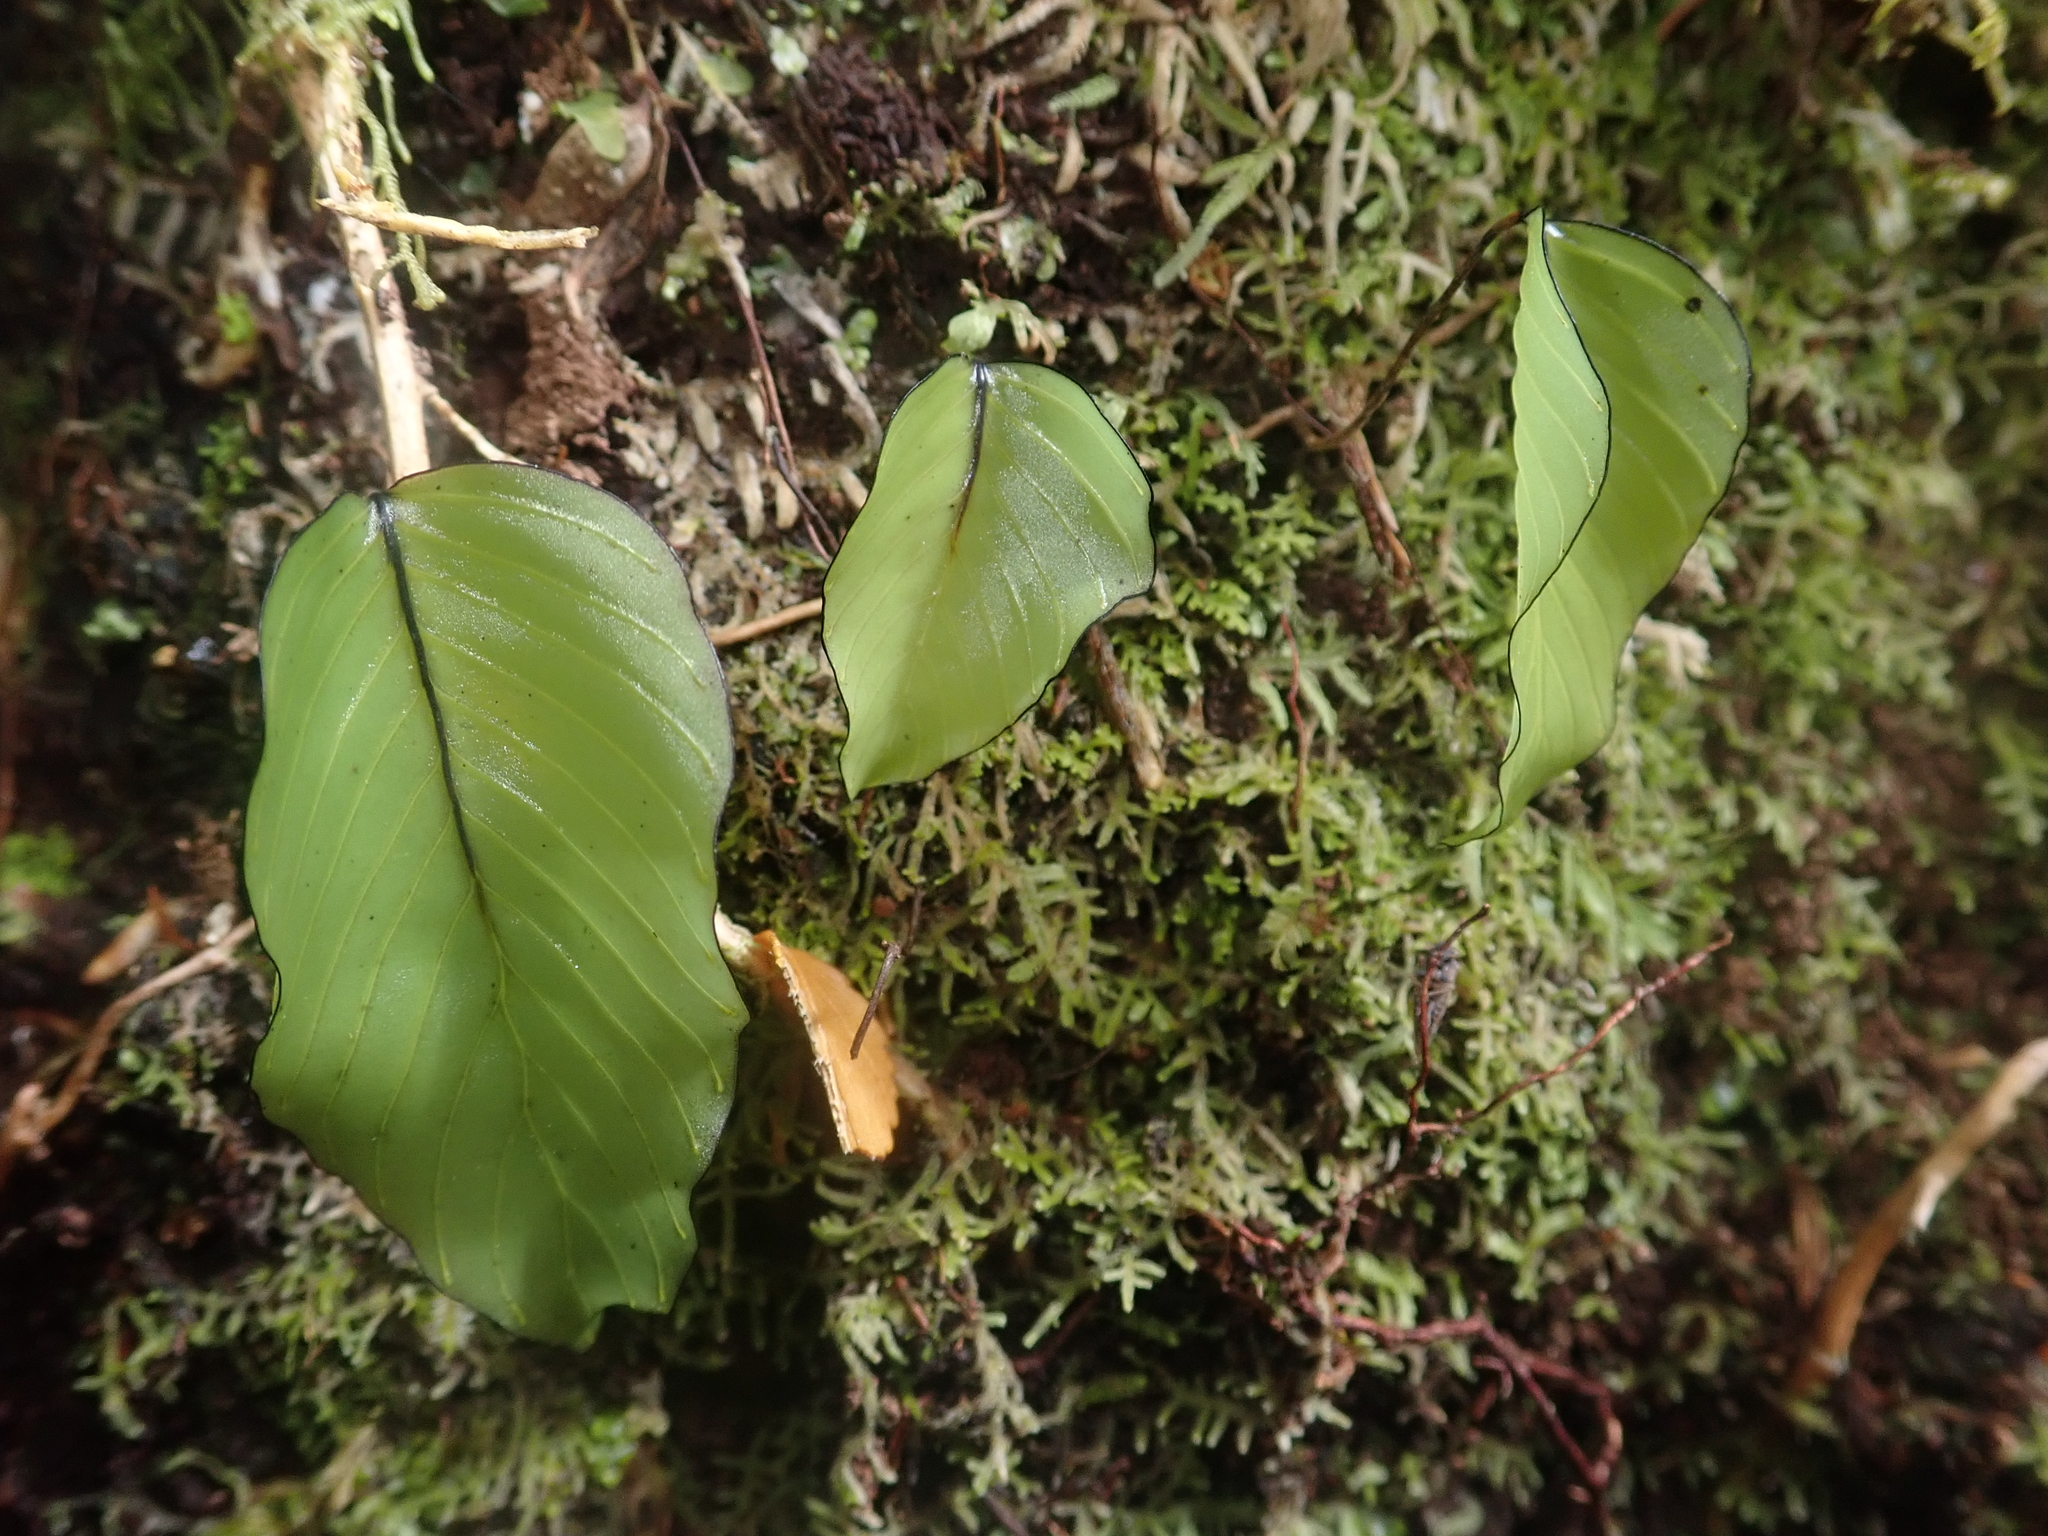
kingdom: Plantae
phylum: Tracheophyta
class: Polypodiopsida
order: Hymenophyllales
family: Hymenophyllaceae
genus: Hymenophyllum
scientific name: Hymenophyllum cruentum
